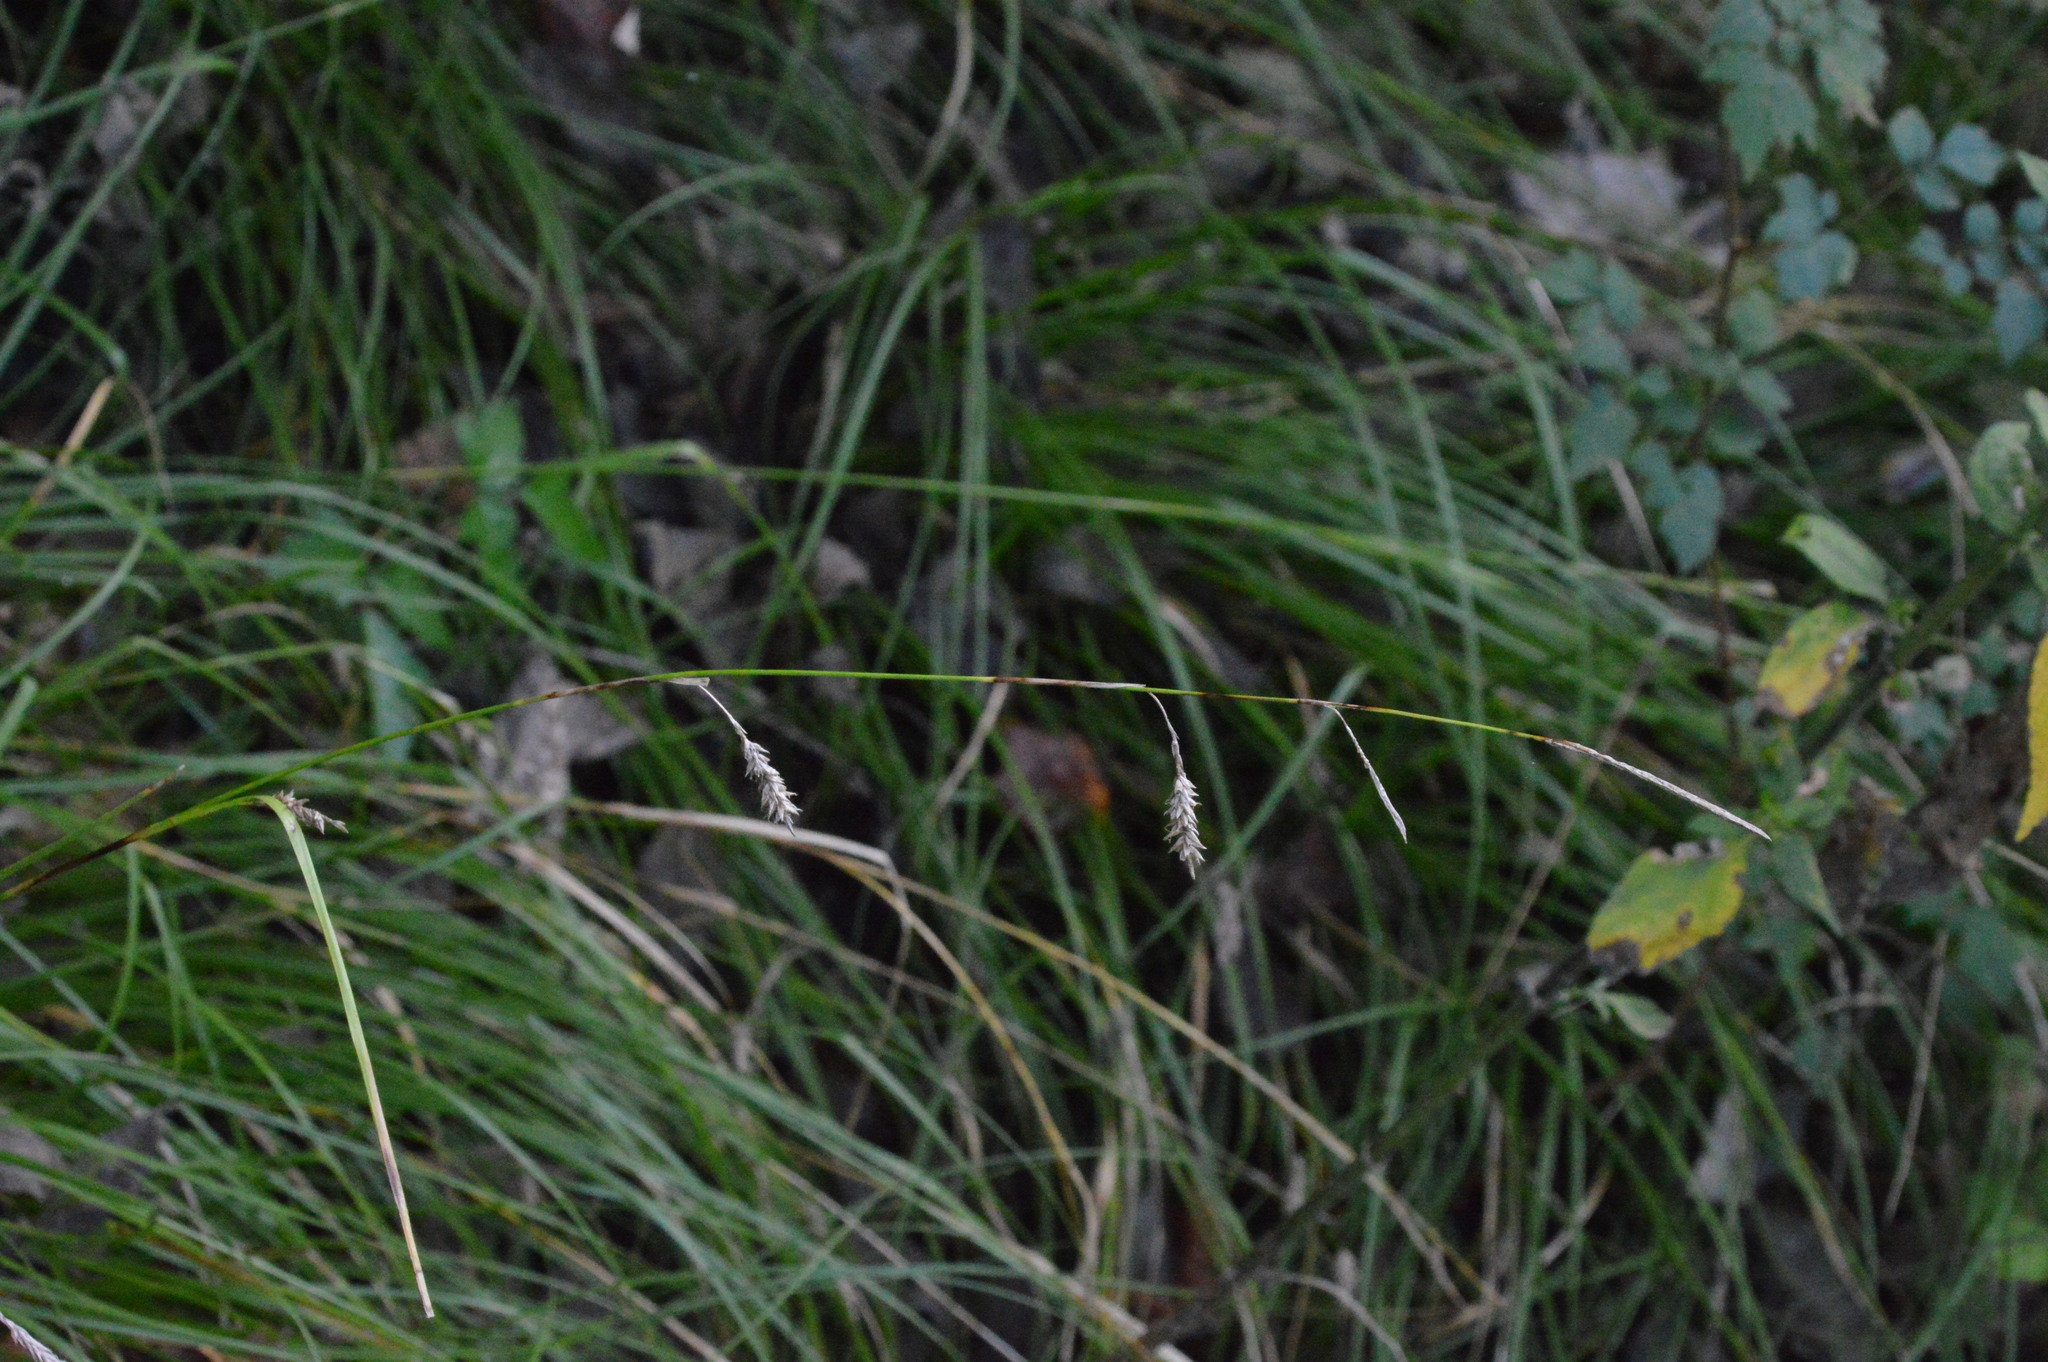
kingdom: Plantae
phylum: Tracheophyta
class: Liliopsida
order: Poales
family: Cyperaceae
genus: Carex
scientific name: Carex cherokeensis
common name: Cherokee sedge
